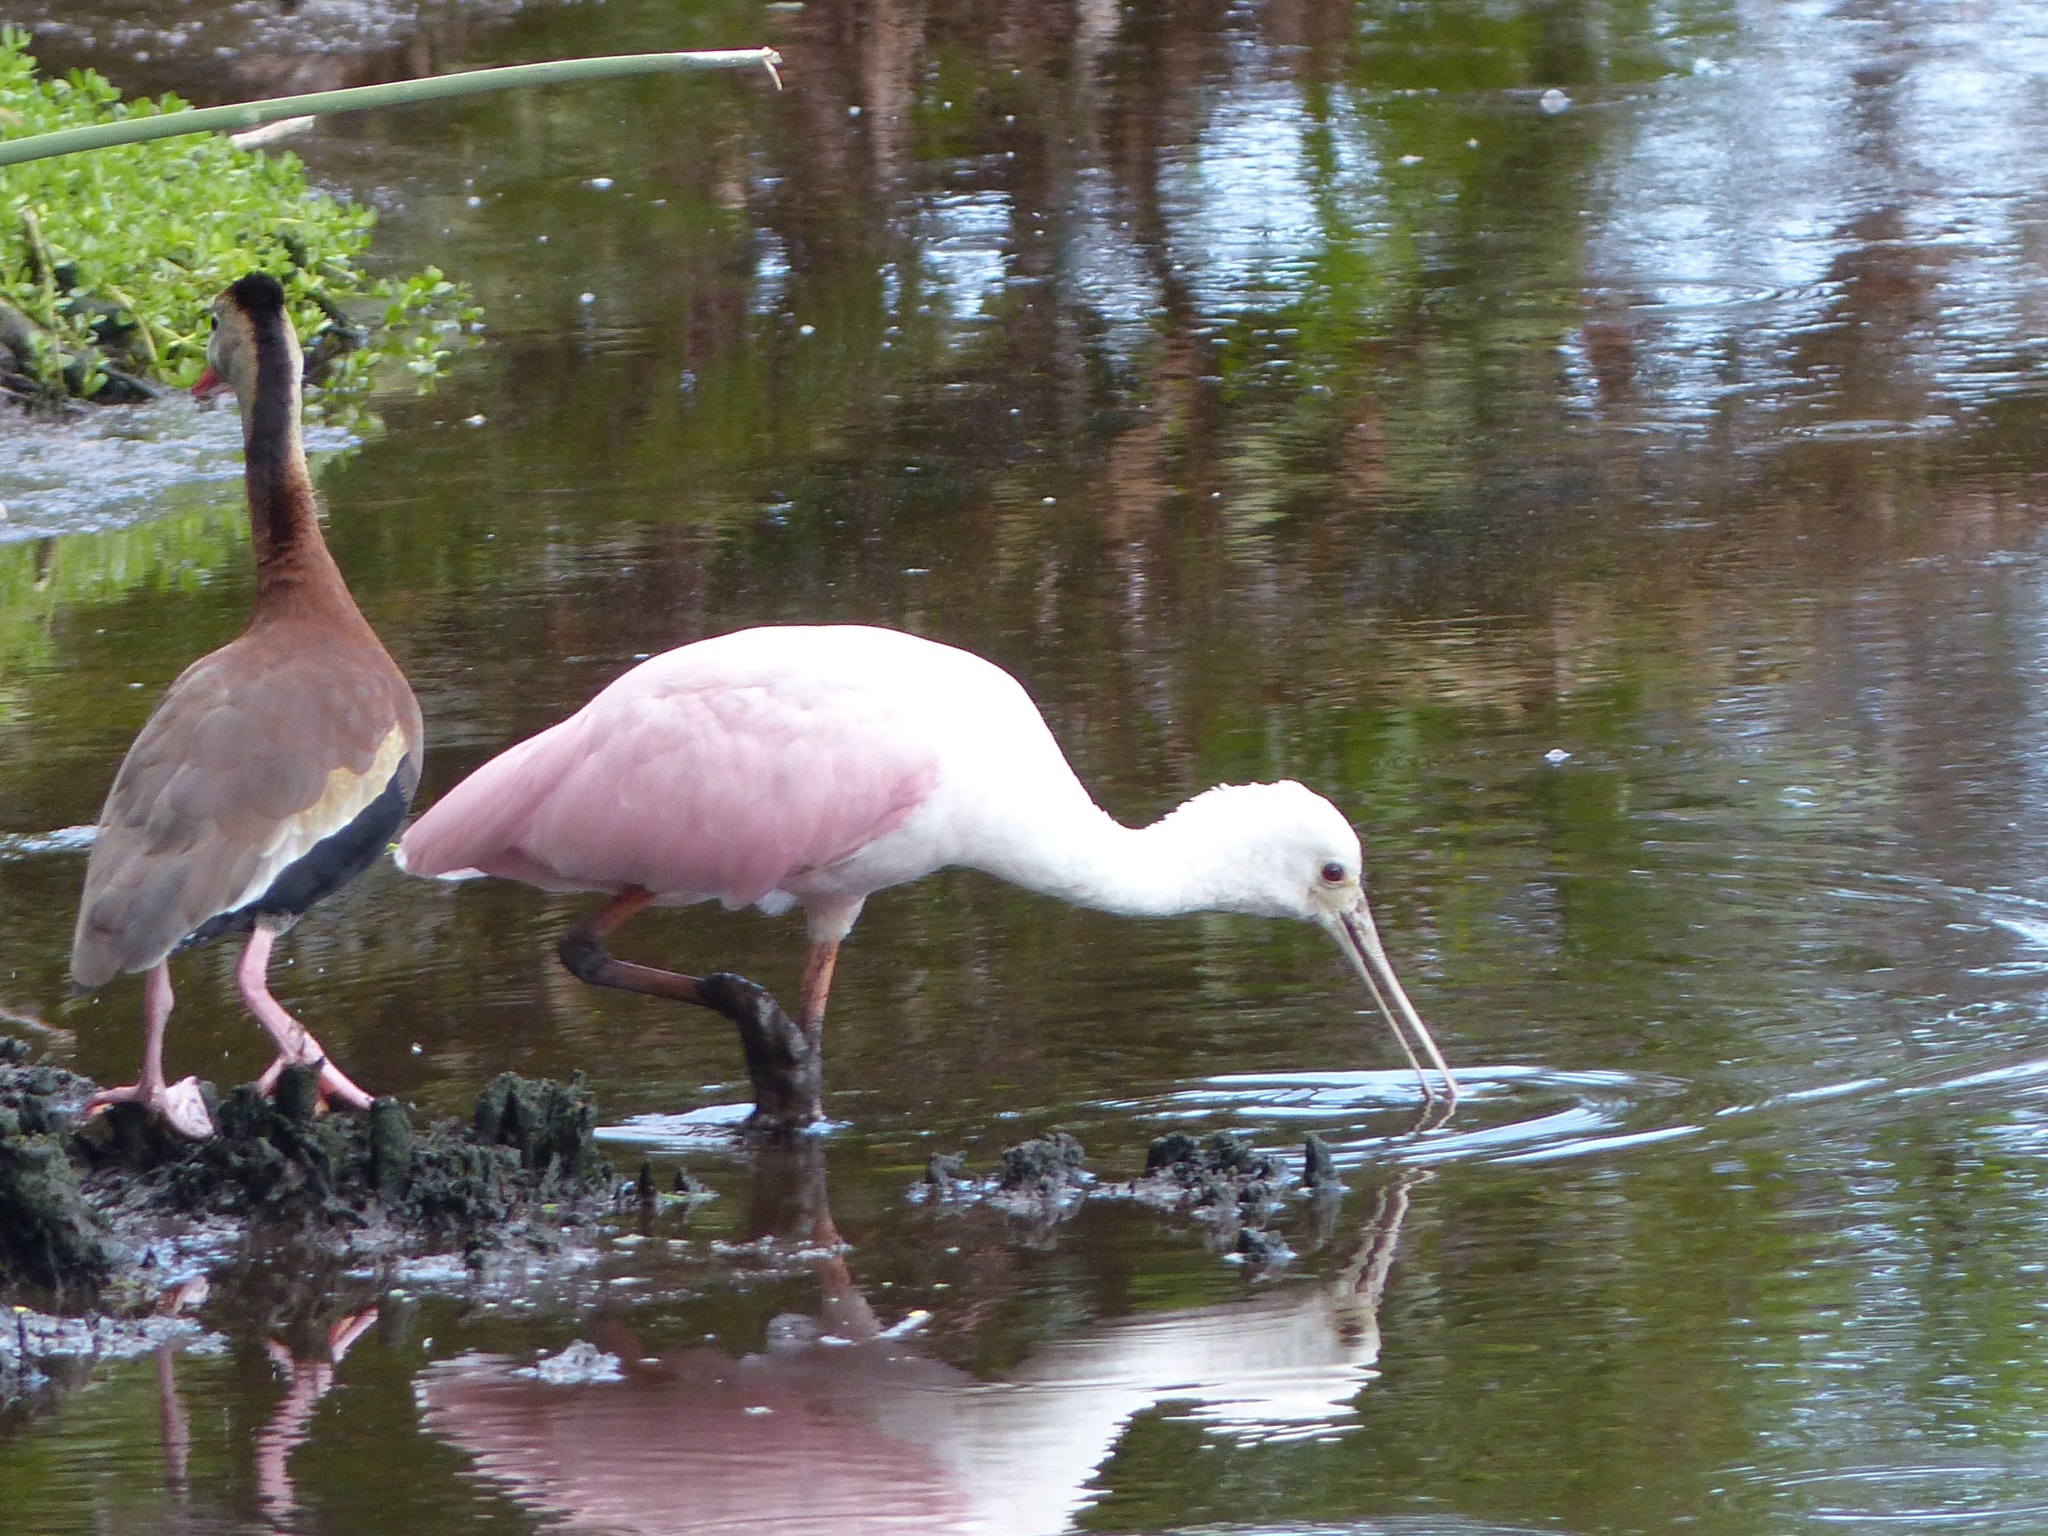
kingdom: Animalia
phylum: Chordata
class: Aves
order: Pelecaniformes
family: Threskiornithidae
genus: Platalea
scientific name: Platalea ajaja
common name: Roseate spoonbill
